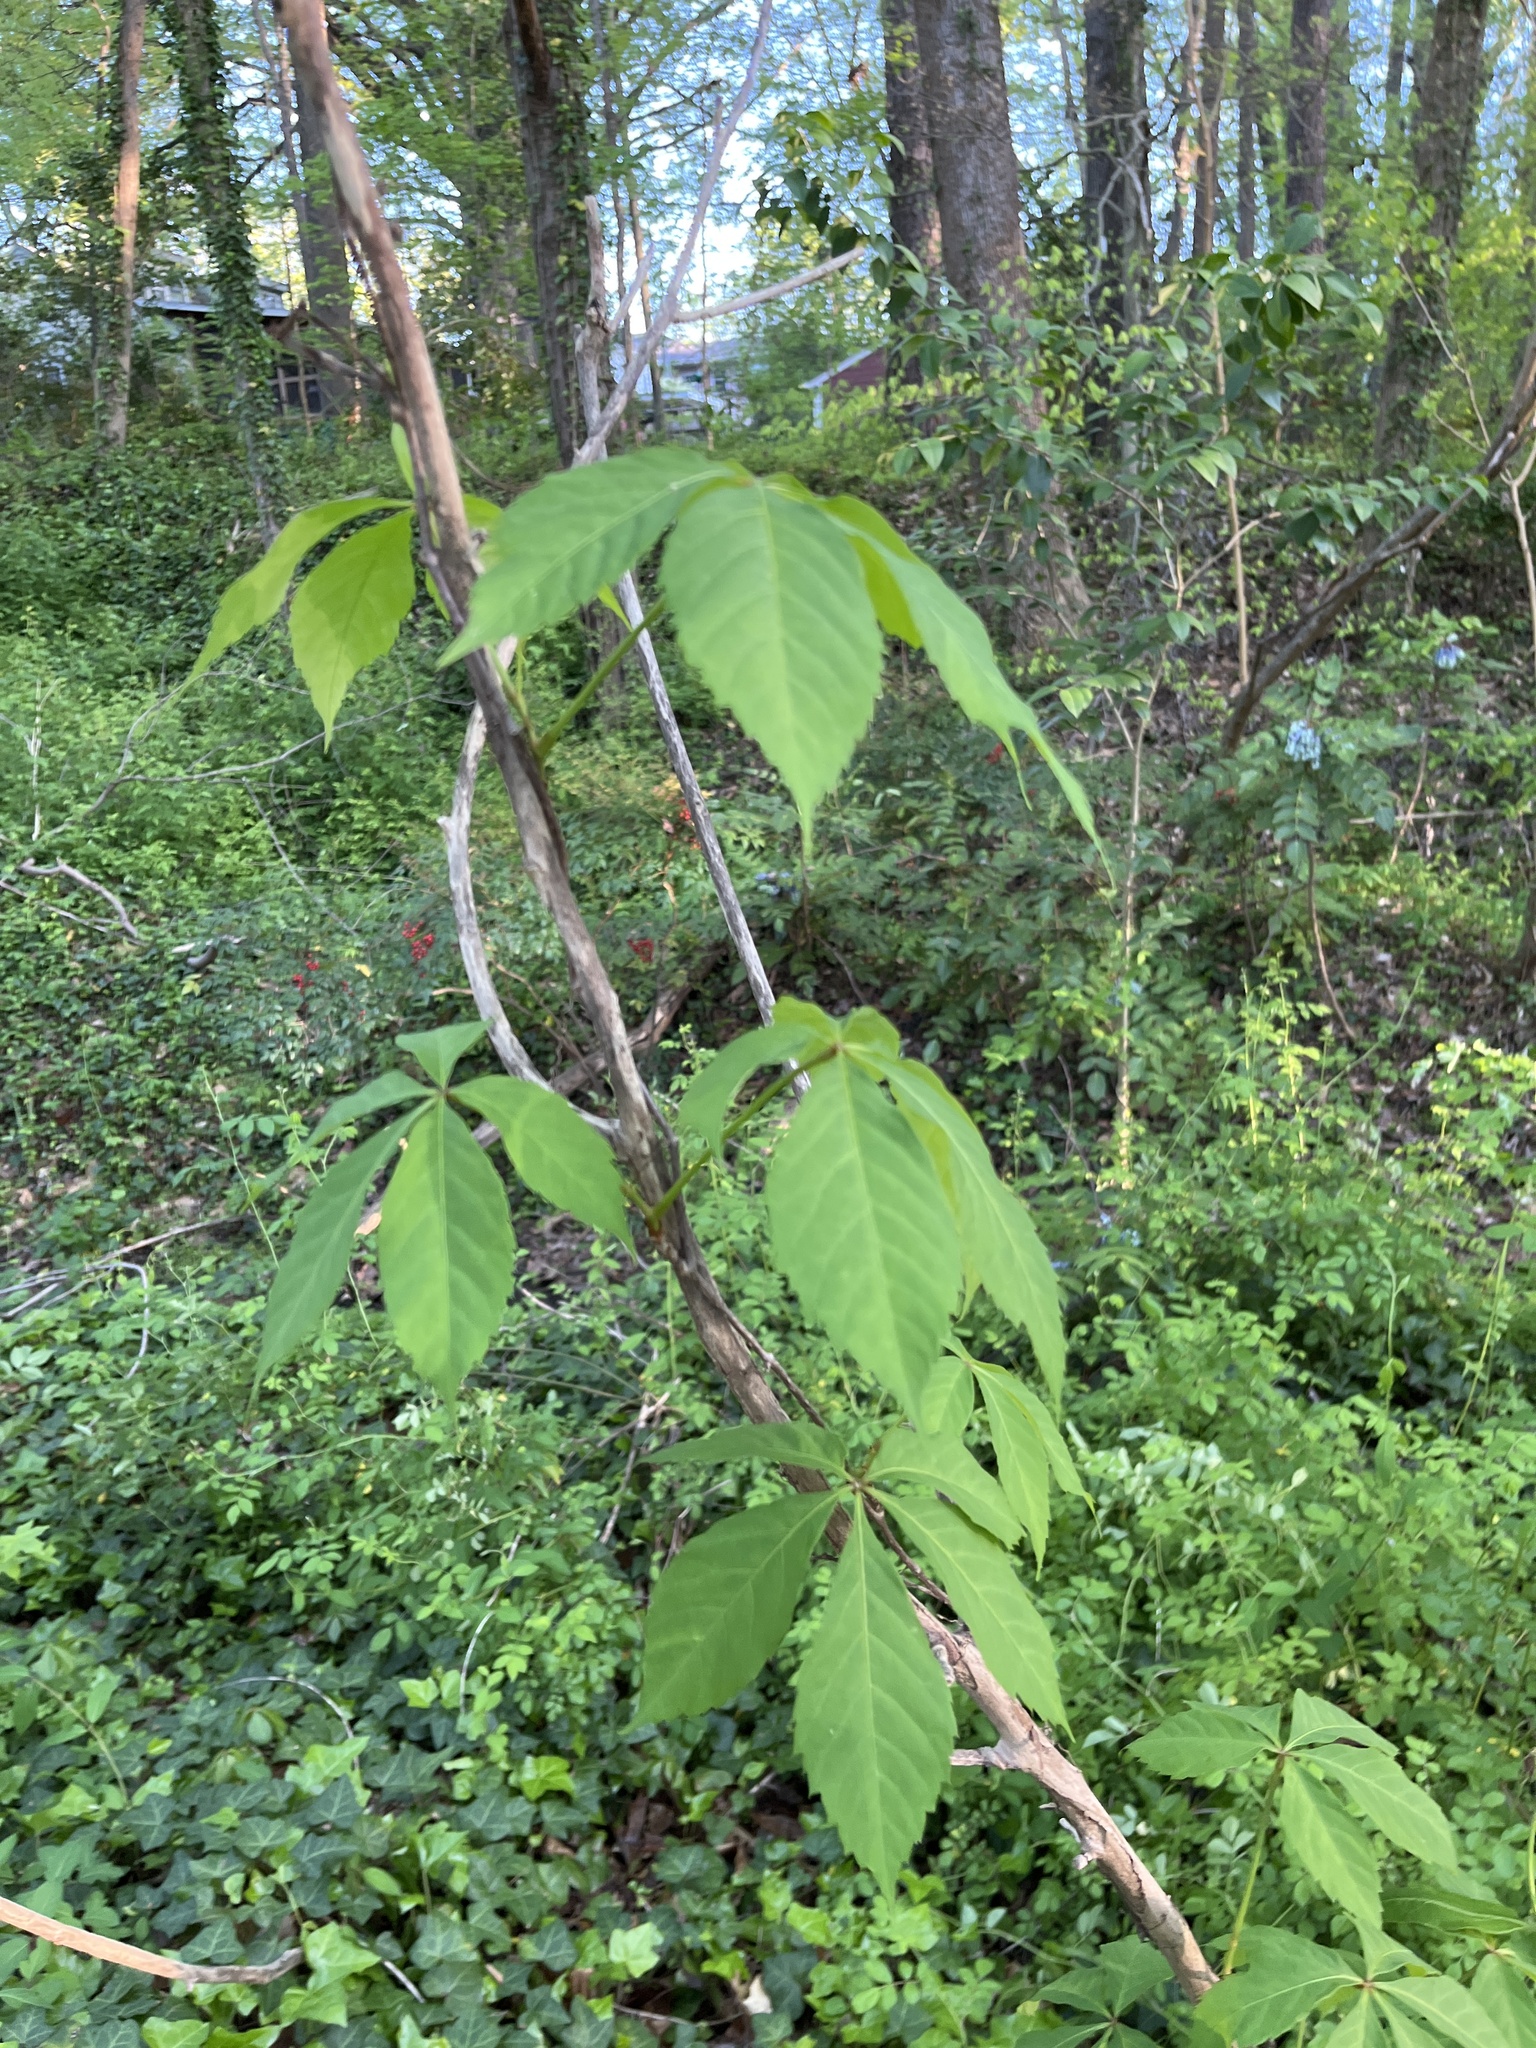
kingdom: Plantae
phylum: Tracheophyta
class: Magnoliopsida
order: Vitales
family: Vitaceae
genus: Parthenocissus
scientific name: Parthenocissus quinquefolia
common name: Virginia-creeper
